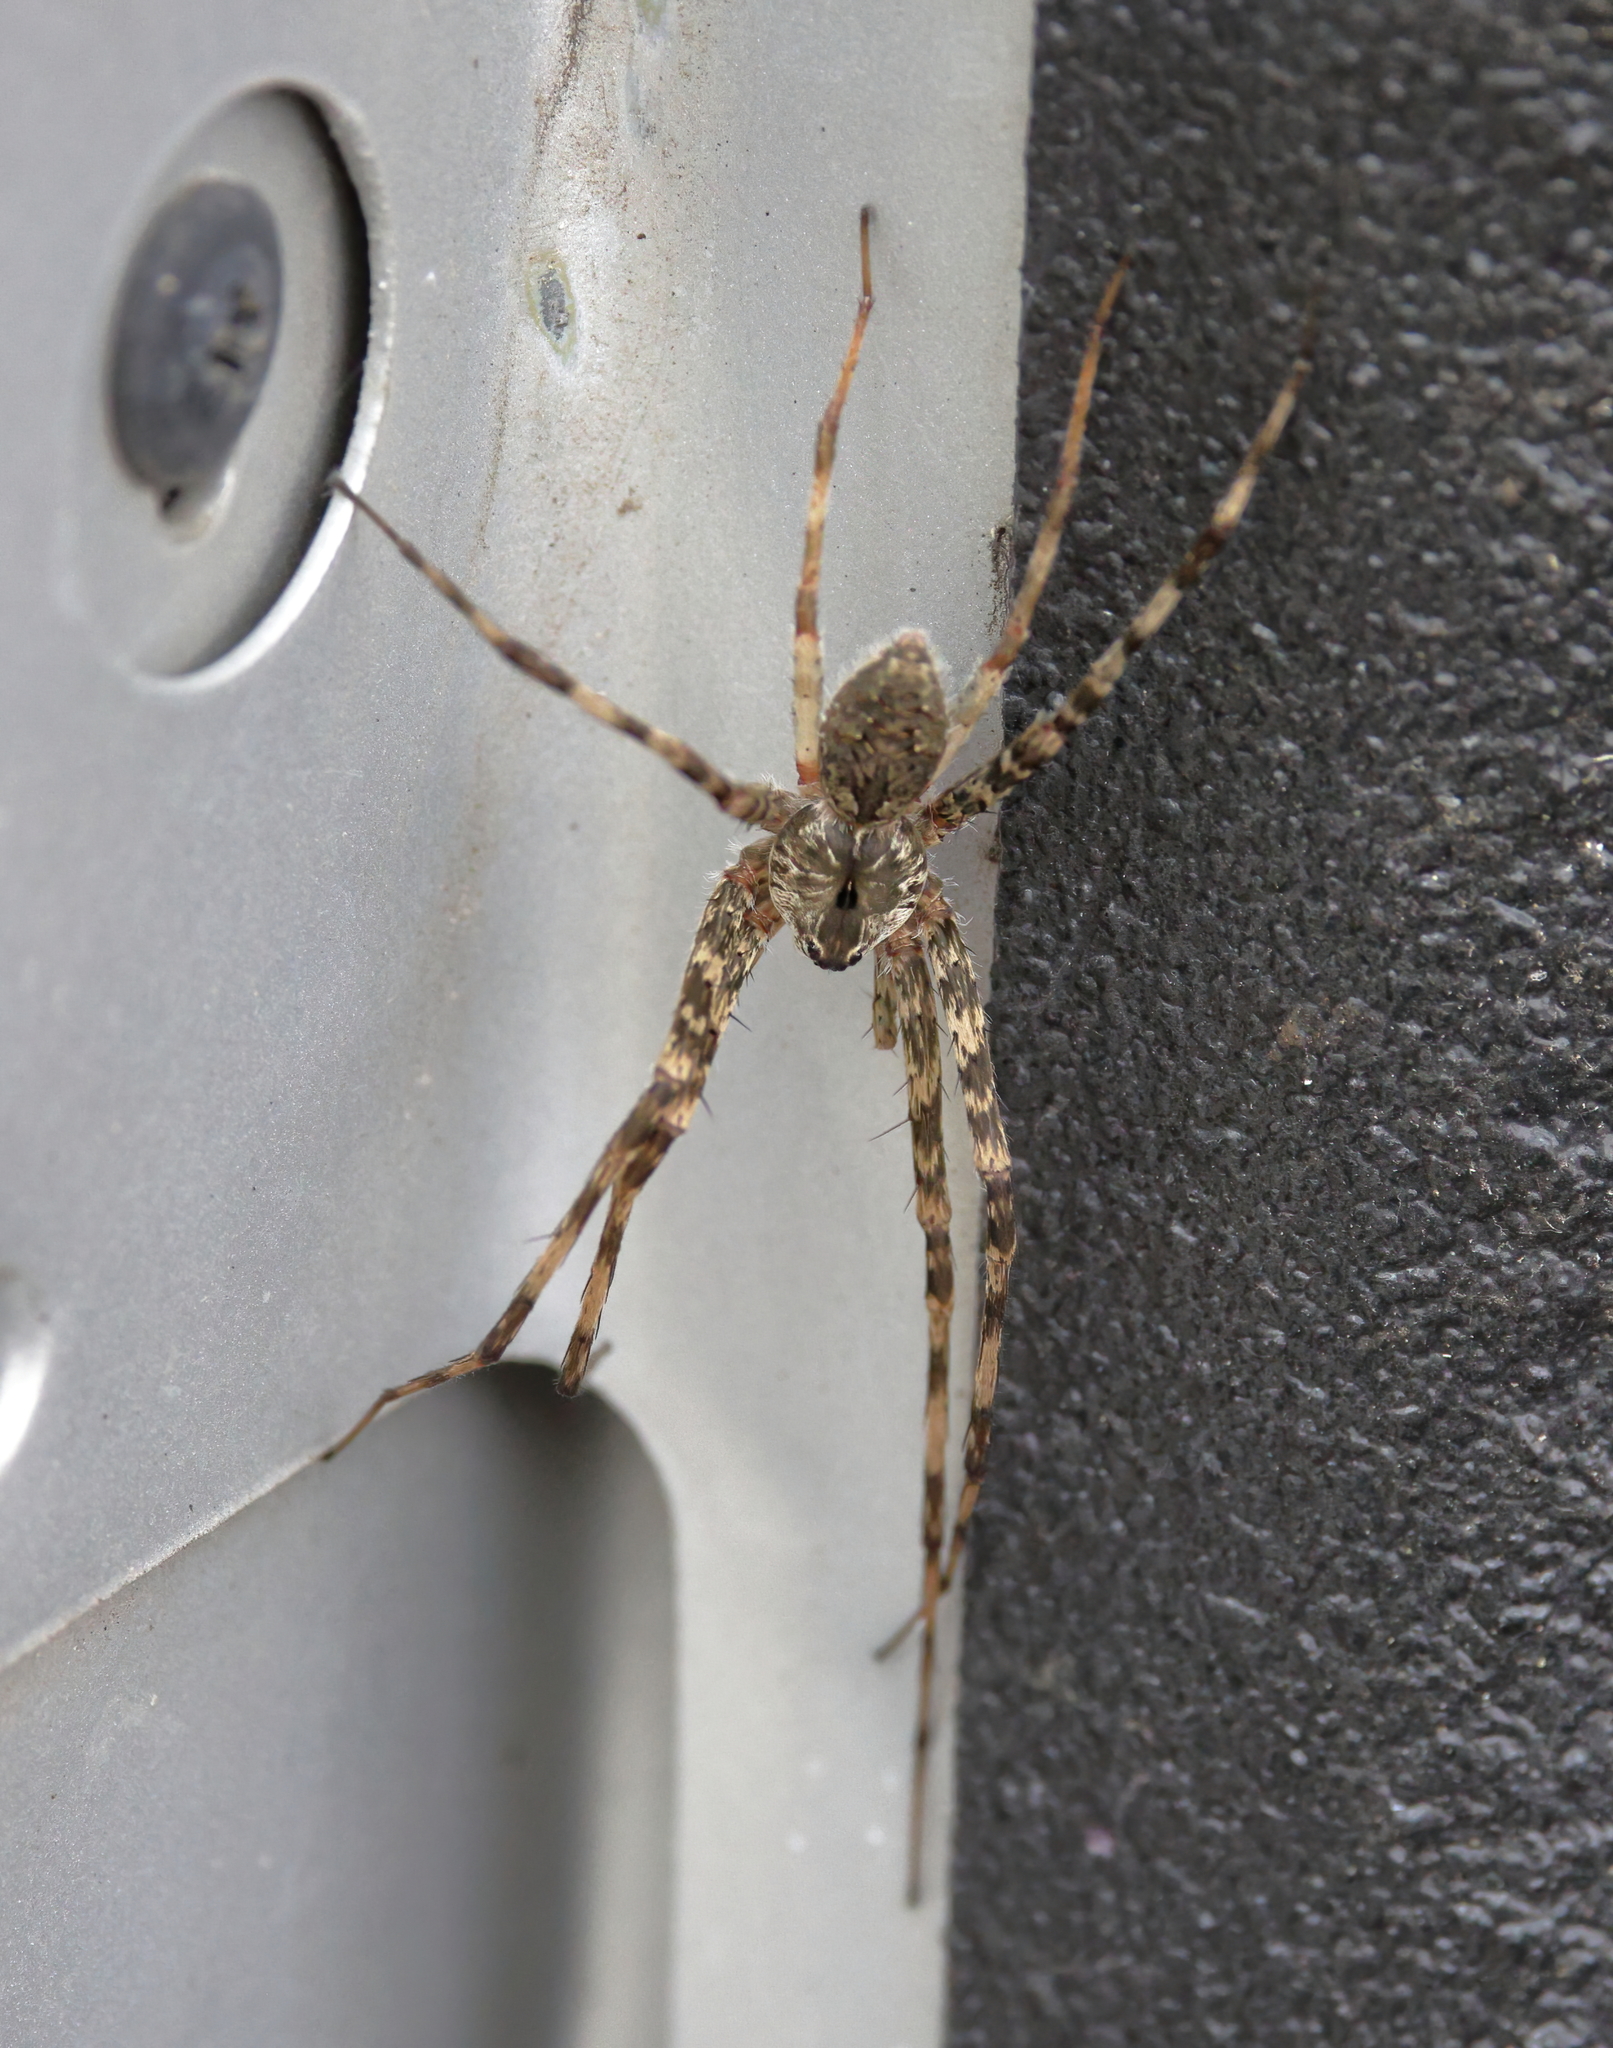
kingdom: Animalia
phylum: Arthropoda
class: Arachnida
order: Araneae
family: Pisauridae
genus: Dolomedes
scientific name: Dolomedes albineus
